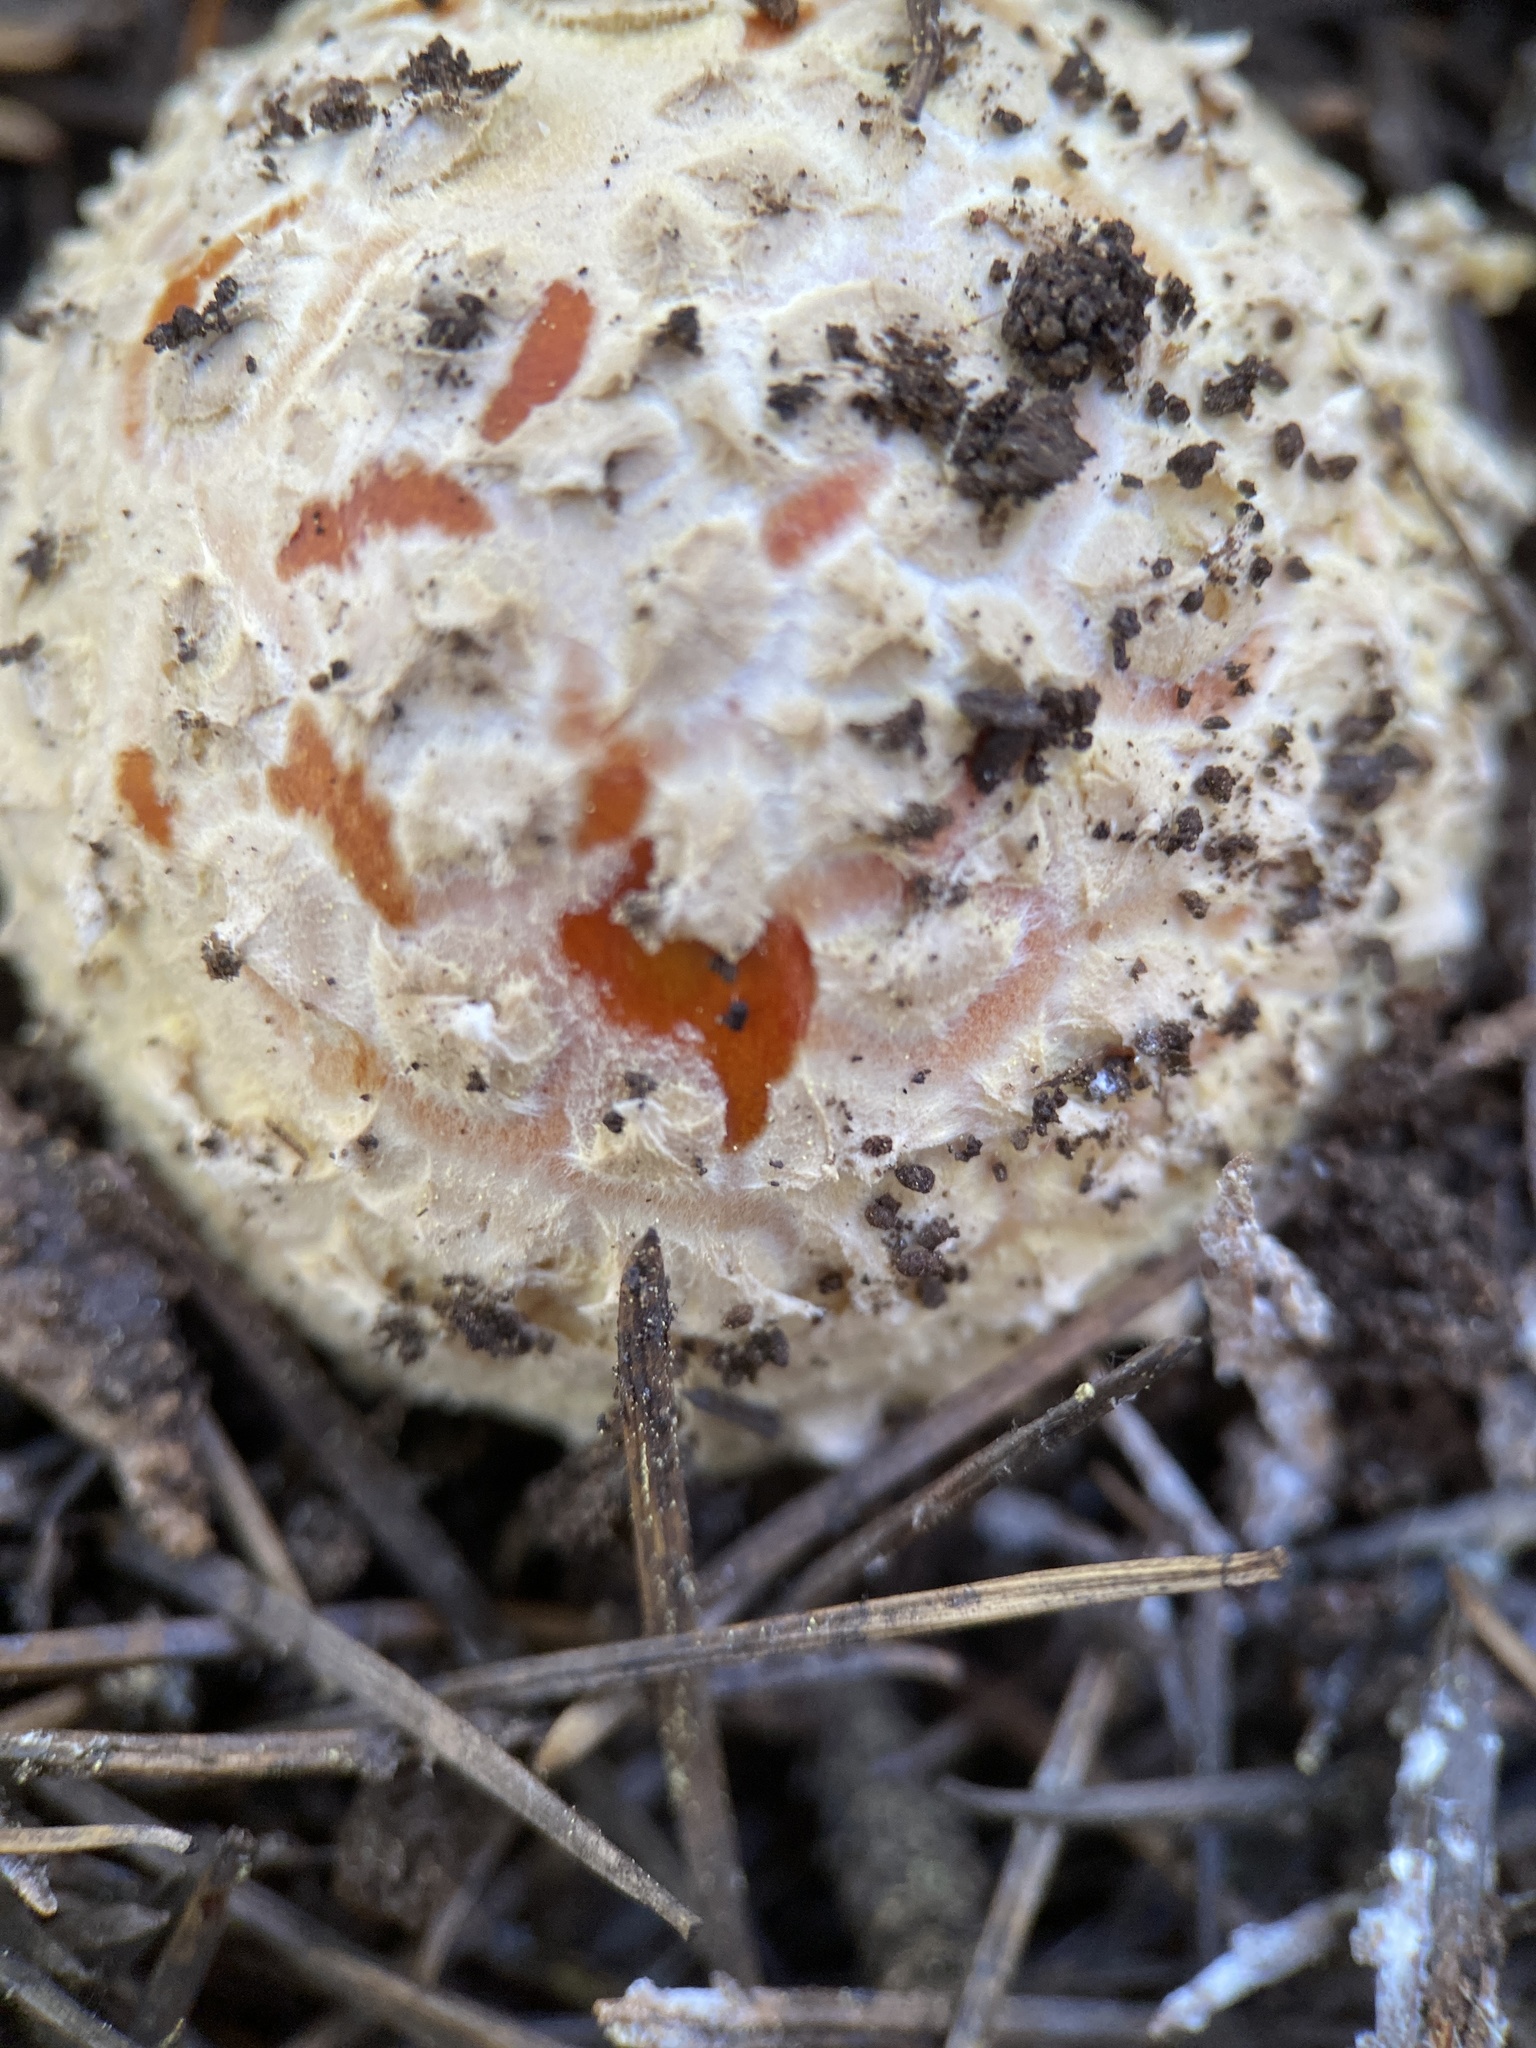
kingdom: Fungi
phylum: Basidiomycota
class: Agaricomycetes
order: Agaricales
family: Amanitaceae
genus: Amanita
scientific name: Amanita muscaria
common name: Fly agaric
